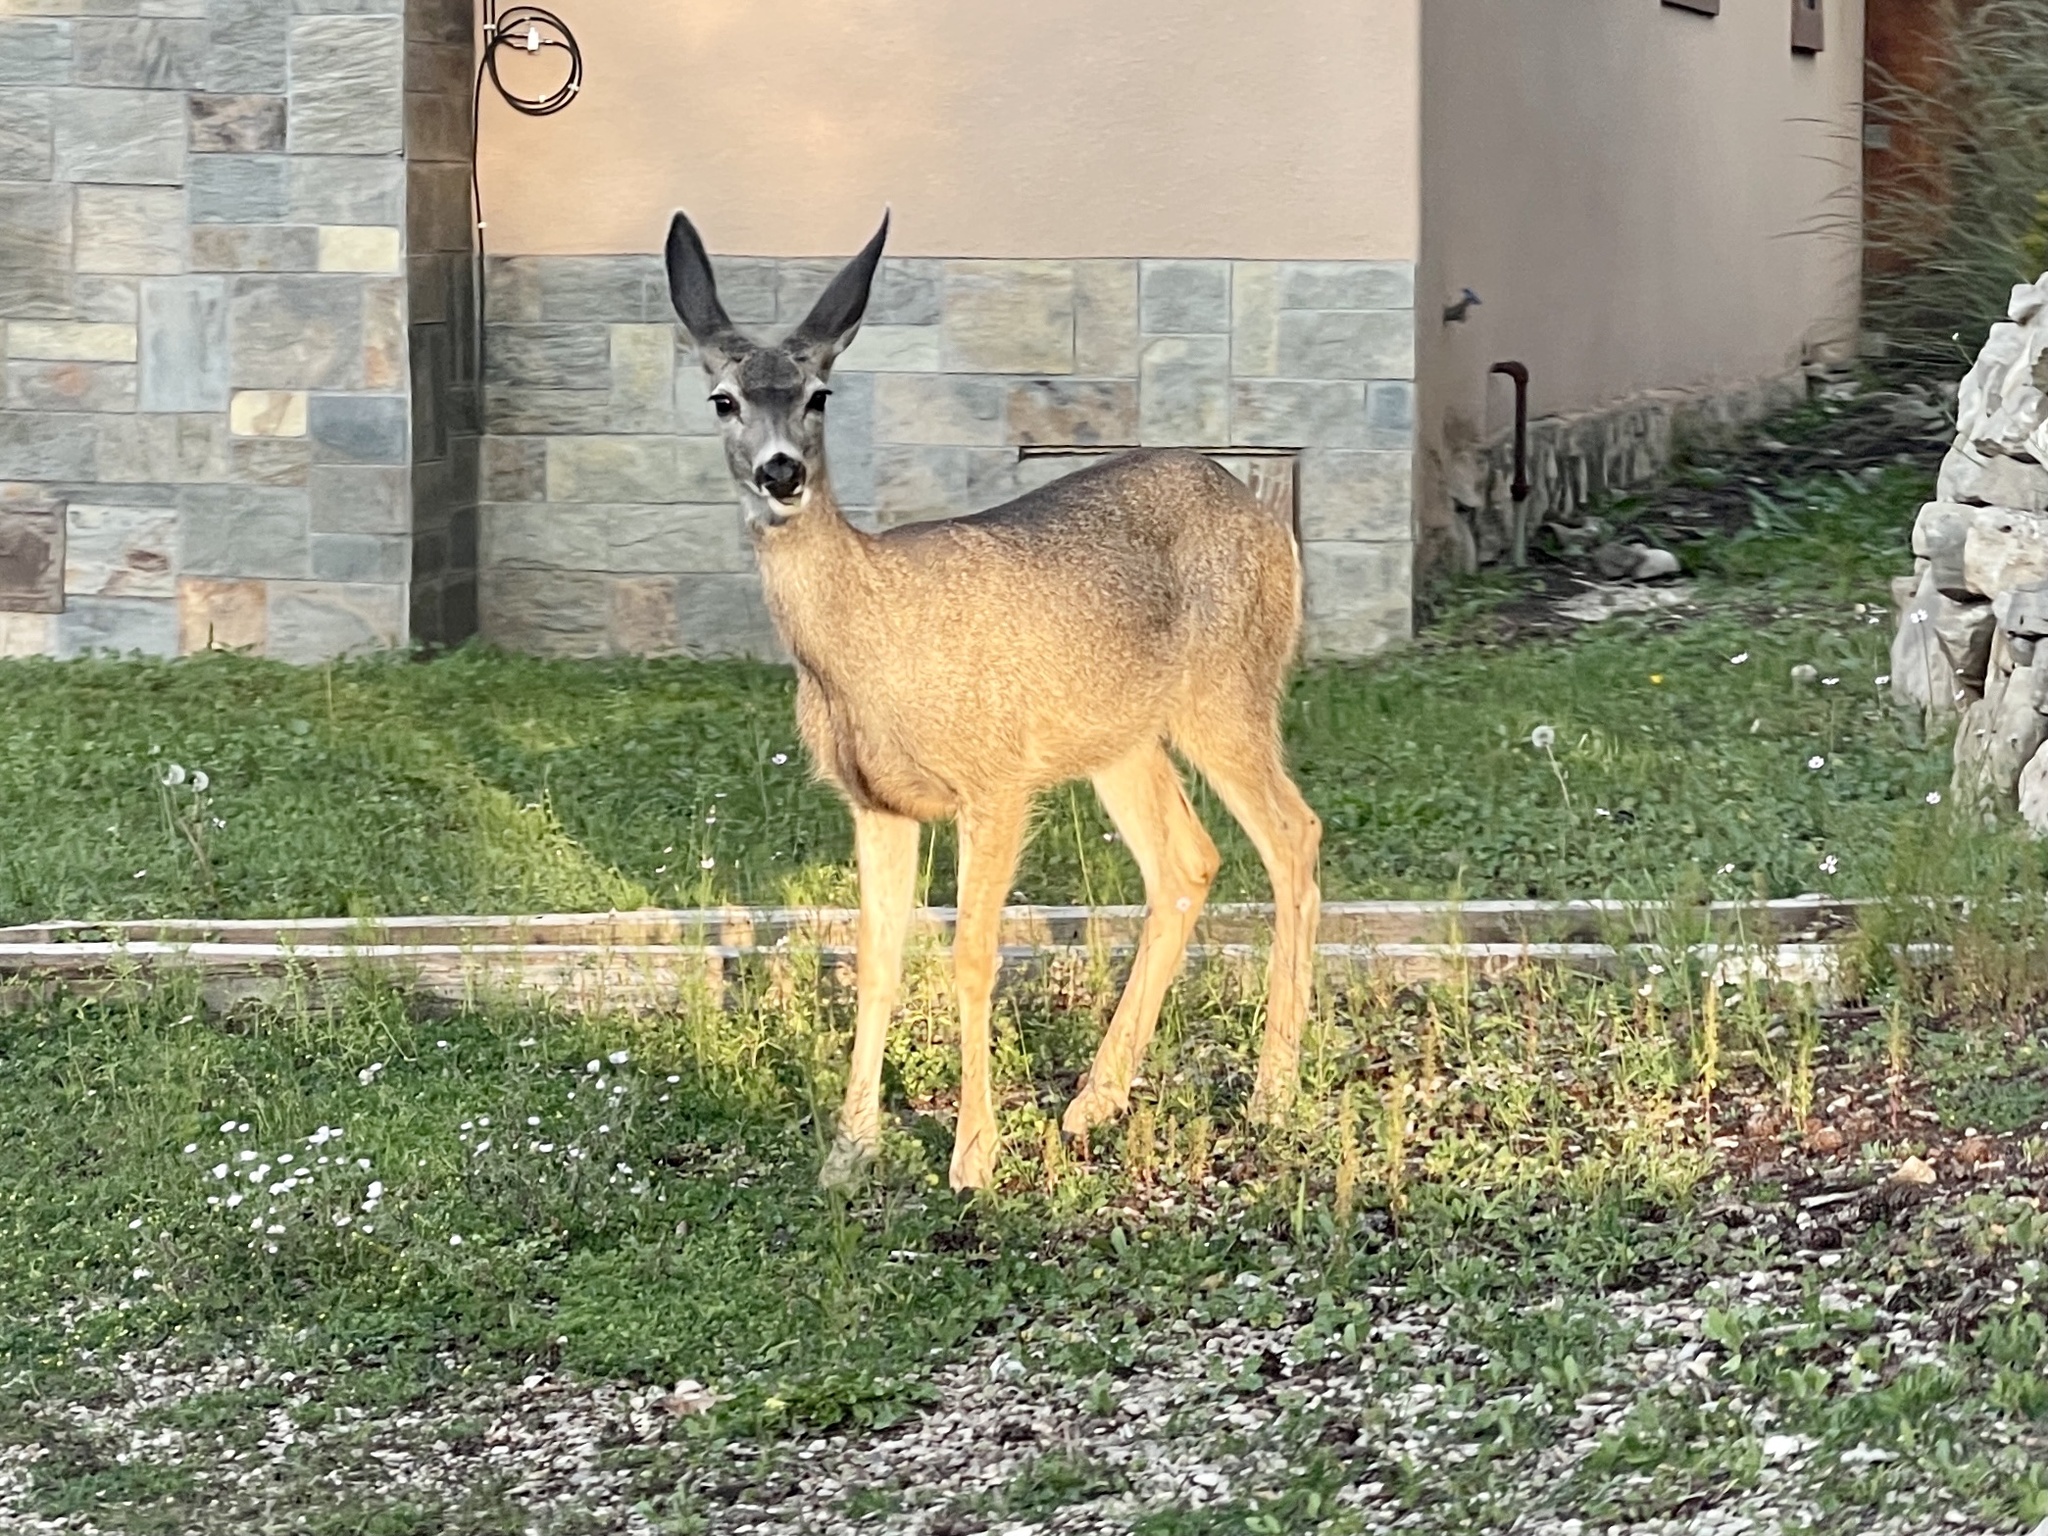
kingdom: Animalia
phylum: Chordata
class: Mammalia
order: Artiodactyla
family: Cervidae
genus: Odocoileus
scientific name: Odocoileus hemionus
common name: Mule deer
